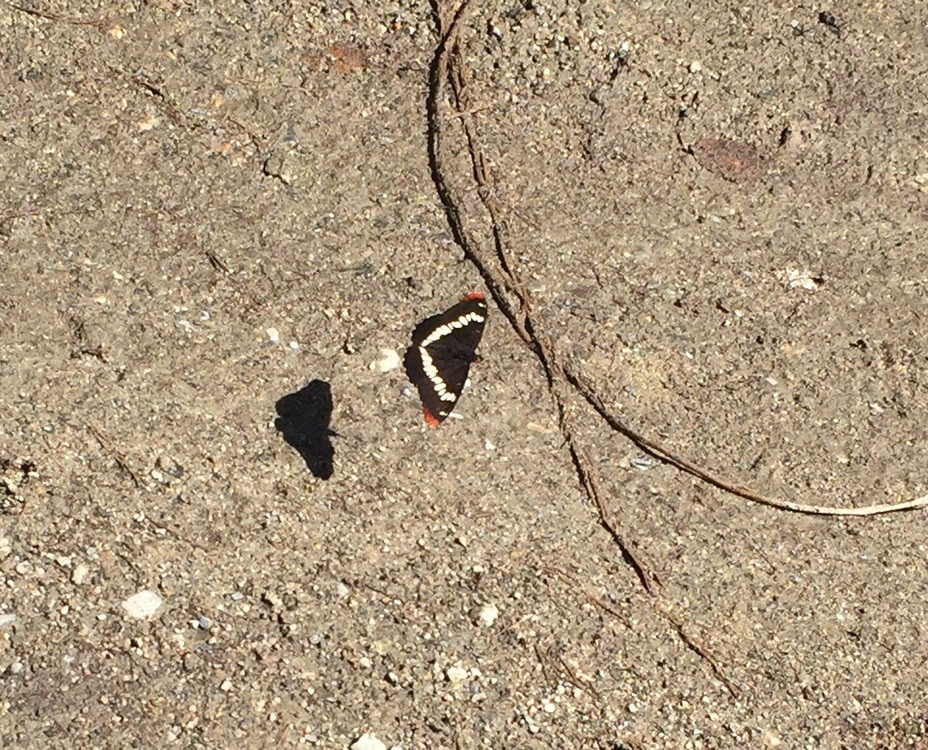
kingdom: Animalia
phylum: Arthropoda
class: Insecta
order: Lepidoptera
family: Nymphalidae
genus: Limenitis
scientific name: Limenitis lorquini
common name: Lorquin's admiral
